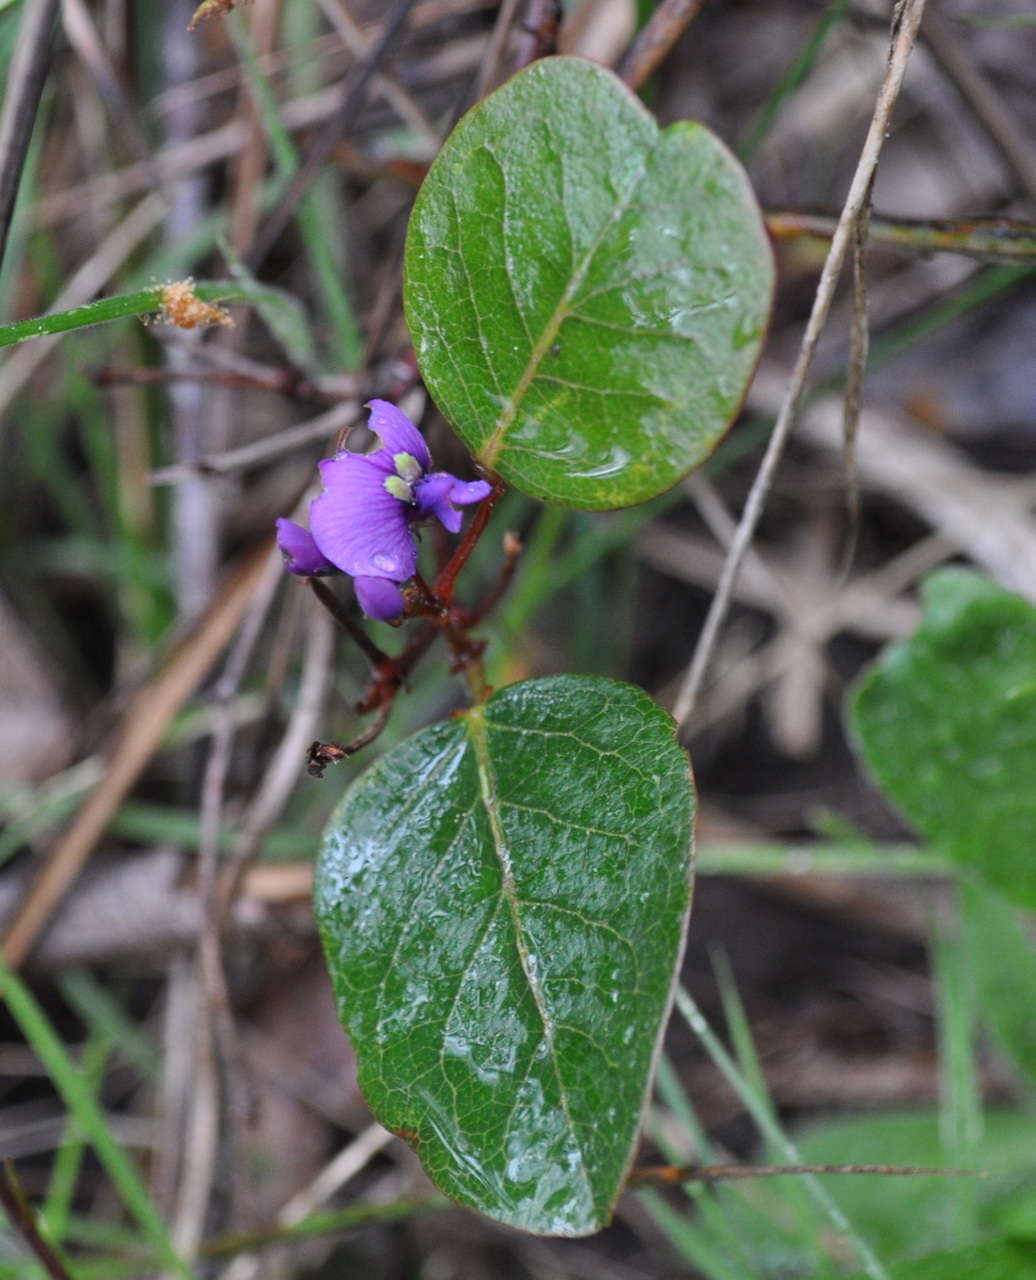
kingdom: Plantae
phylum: Tracheophyta
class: Magnoliopsida
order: Fabales
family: Fabaceae
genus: Hardenbergia
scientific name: Hardenbergia violacea
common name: Coral-pea
